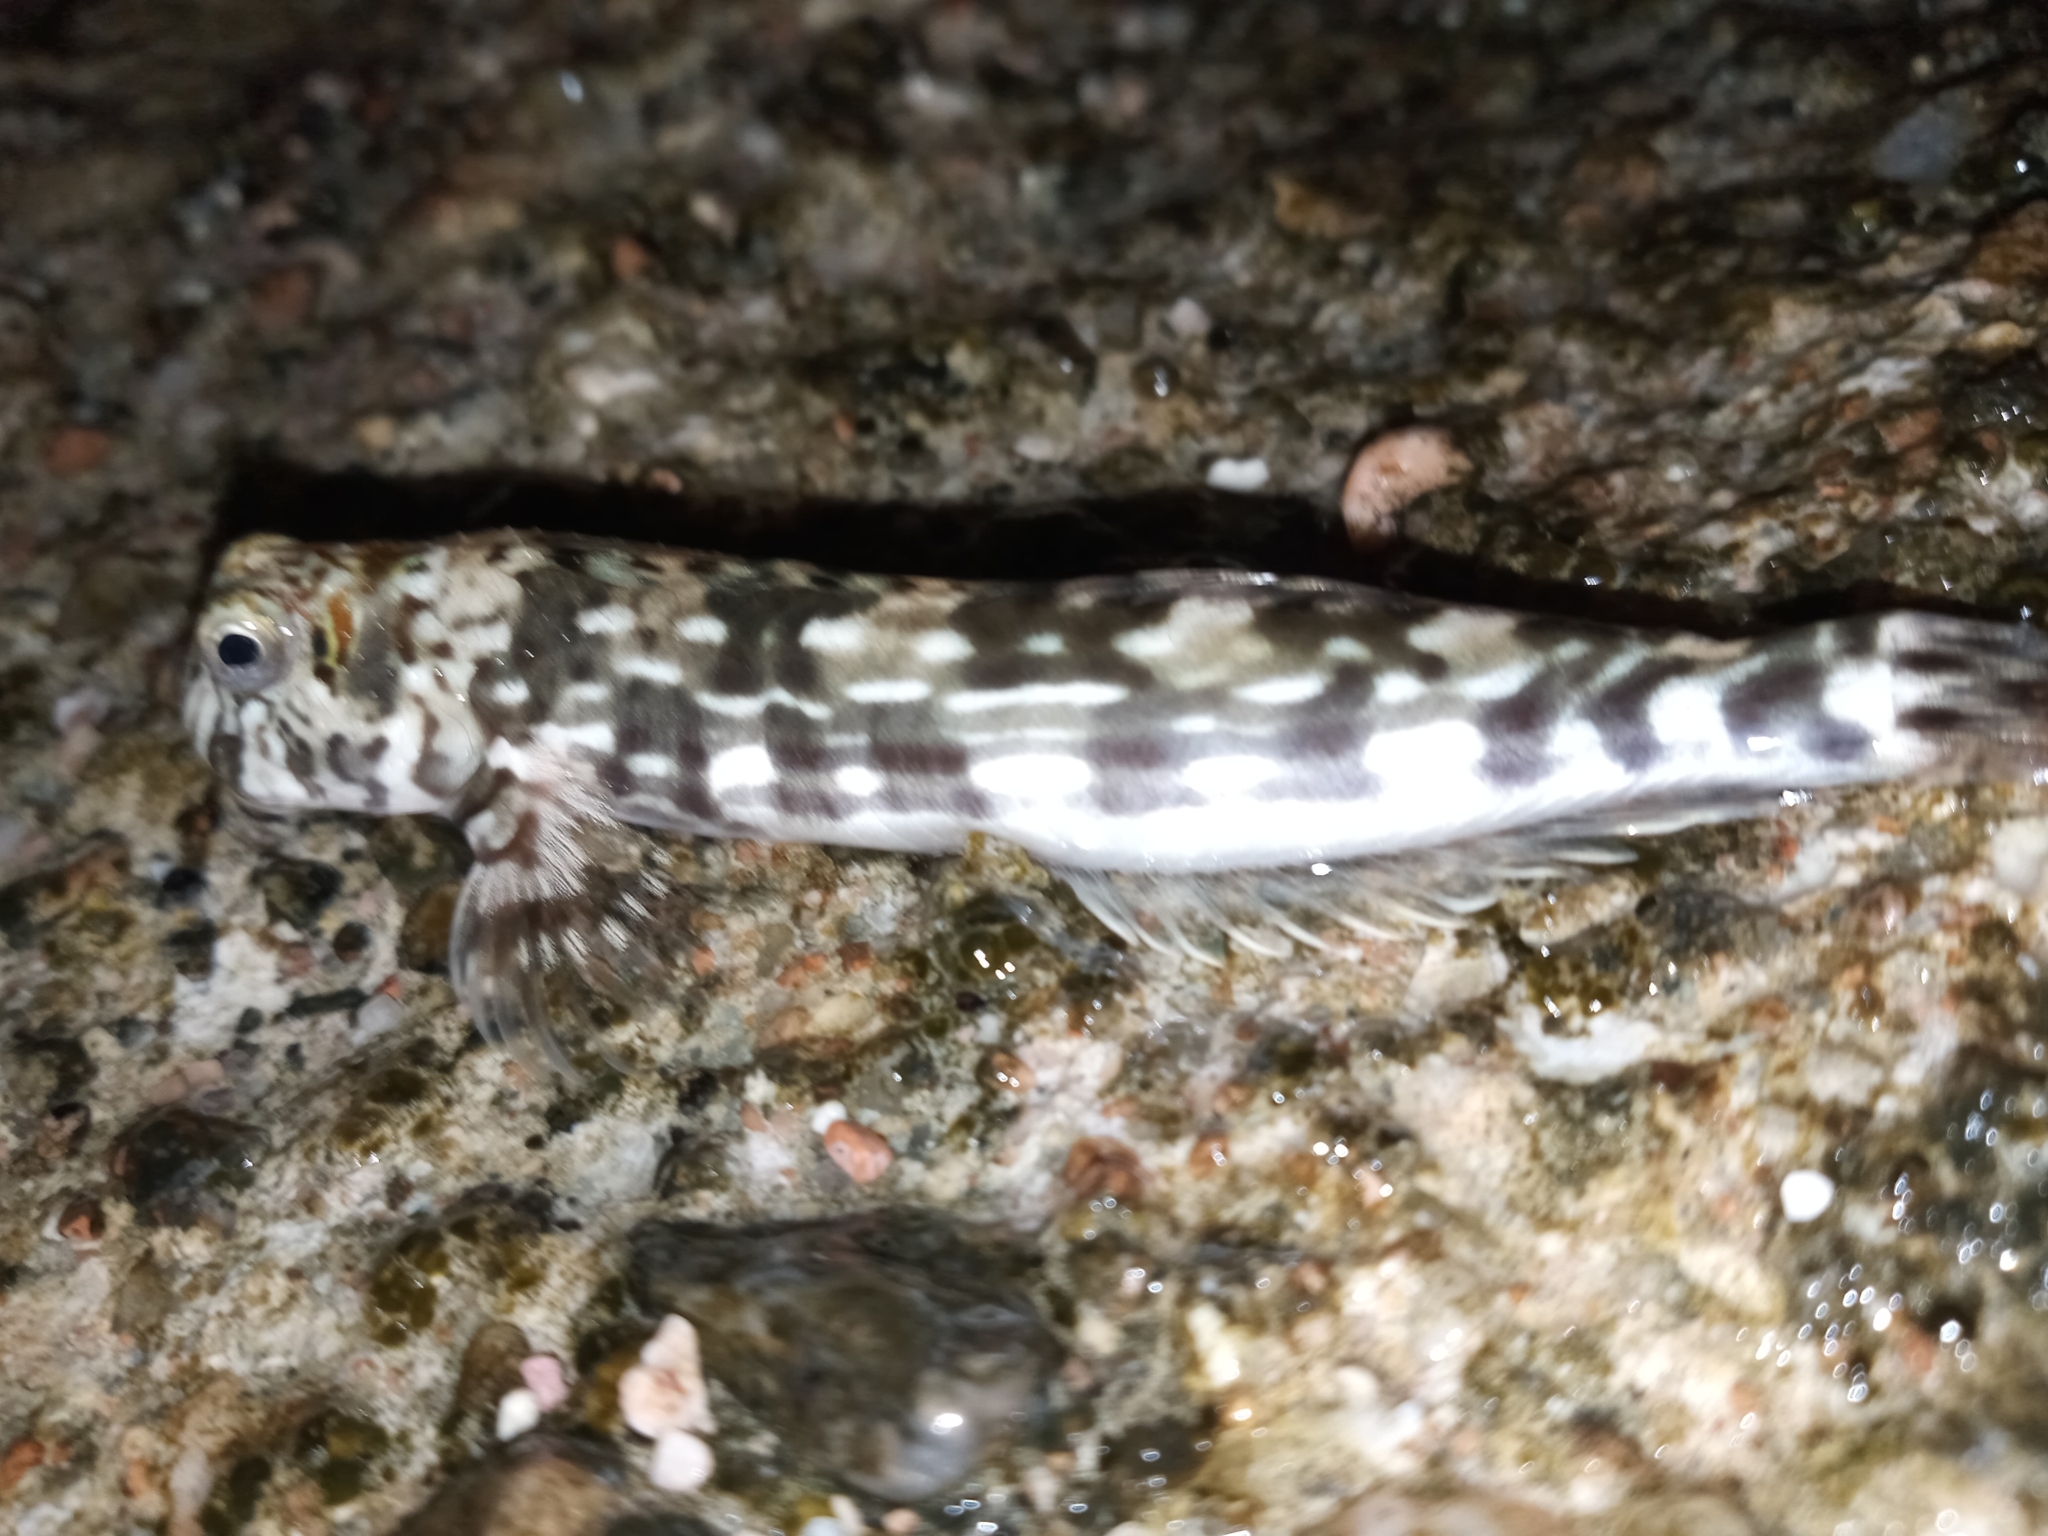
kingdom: Animalia
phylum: Chordata
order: Perciformes
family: Blenniidae
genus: Istiblennius
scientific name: Istiblennius unicolor
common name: Pallid rockskipper
